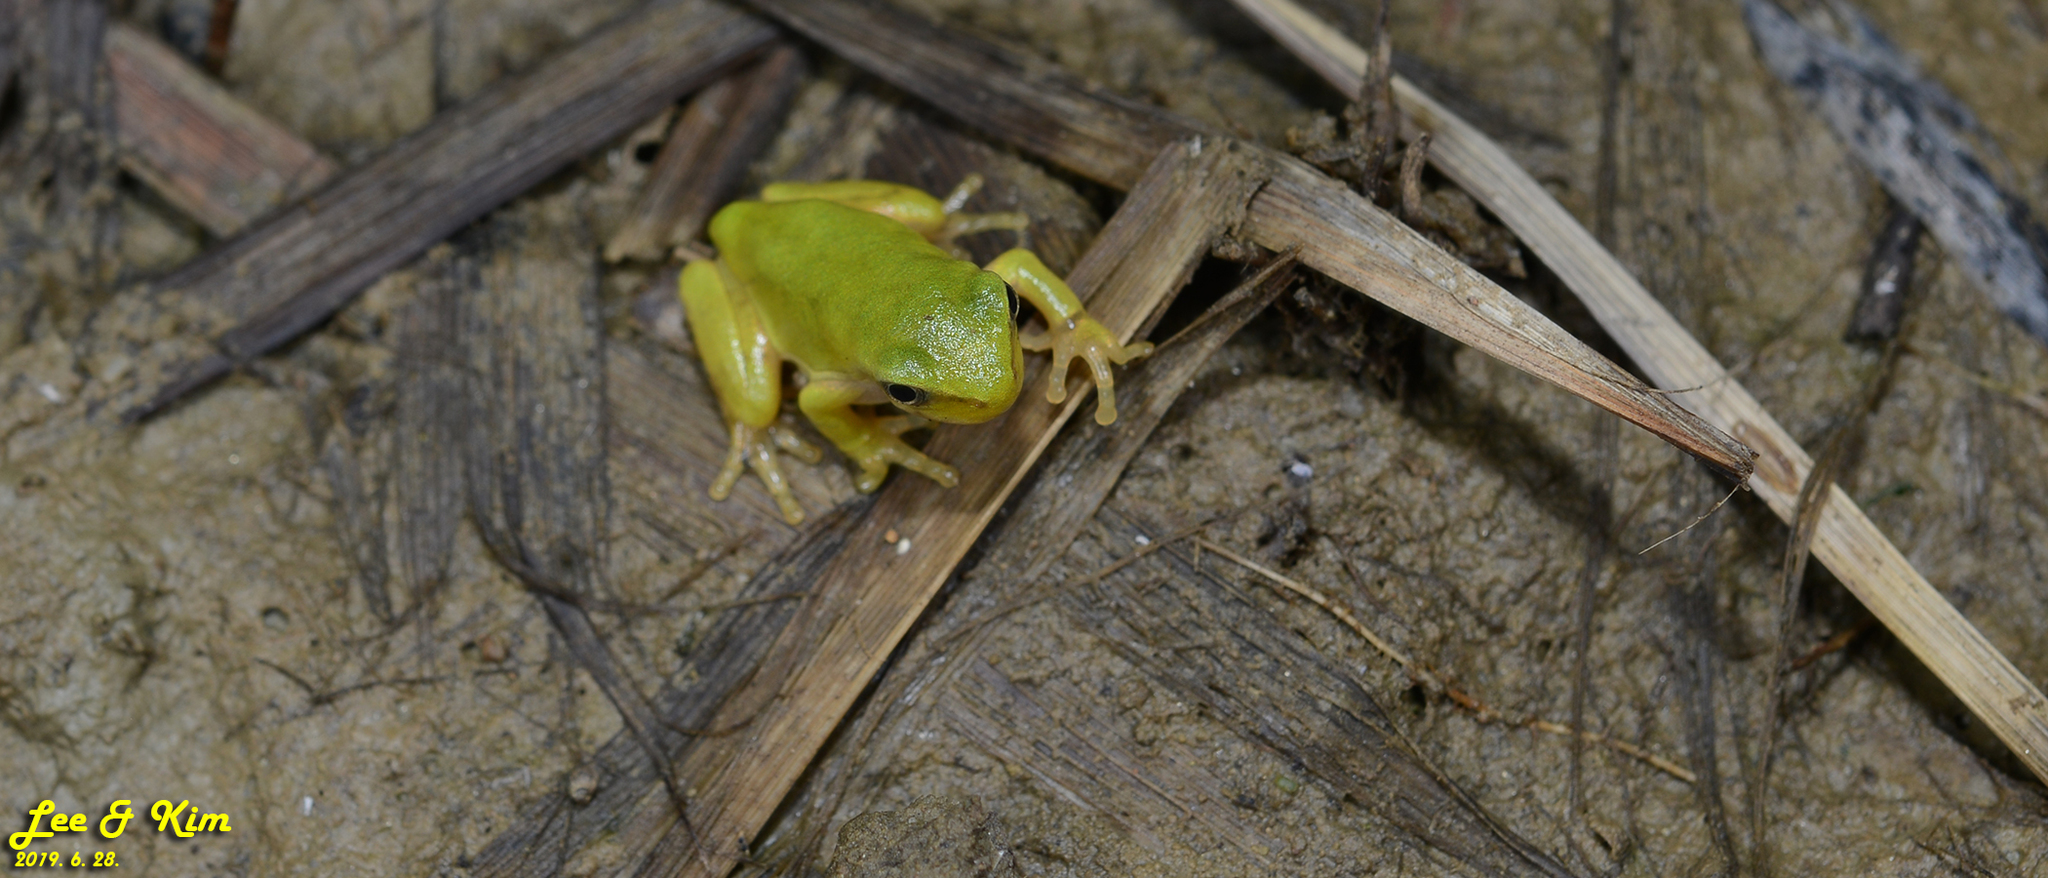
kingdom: Animalia
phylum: Chordata
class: Amphibia
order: Anura
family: Hylidae
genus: Dryophytes
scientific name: Dryophytes japonicus
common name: Japanese treefrog
